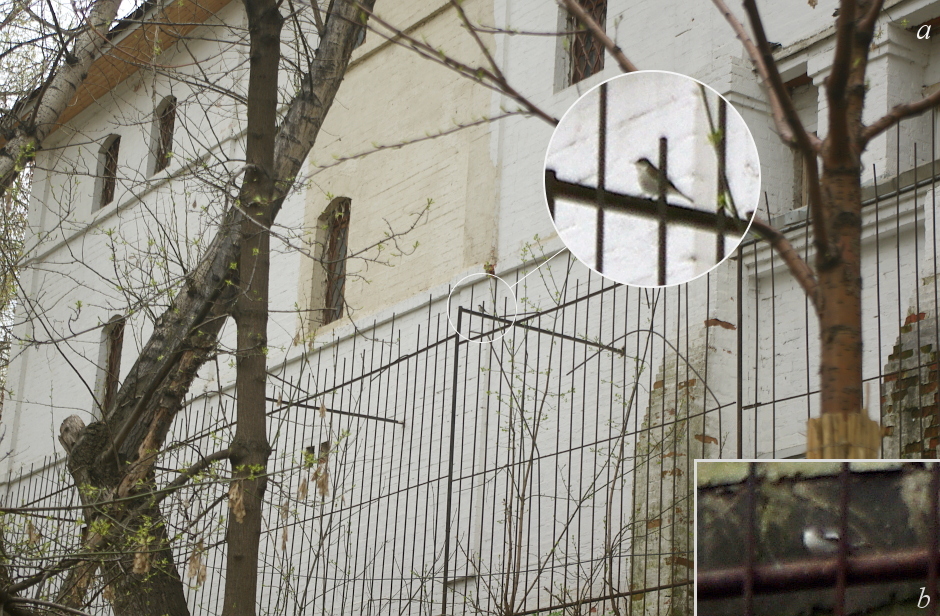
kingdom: Animalia
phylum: Chordata
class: Aves
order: Passeriformes
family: Muscicapidae
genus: Ficedula
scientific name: Ficedula hypoleuca
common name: European pied flycatcher
